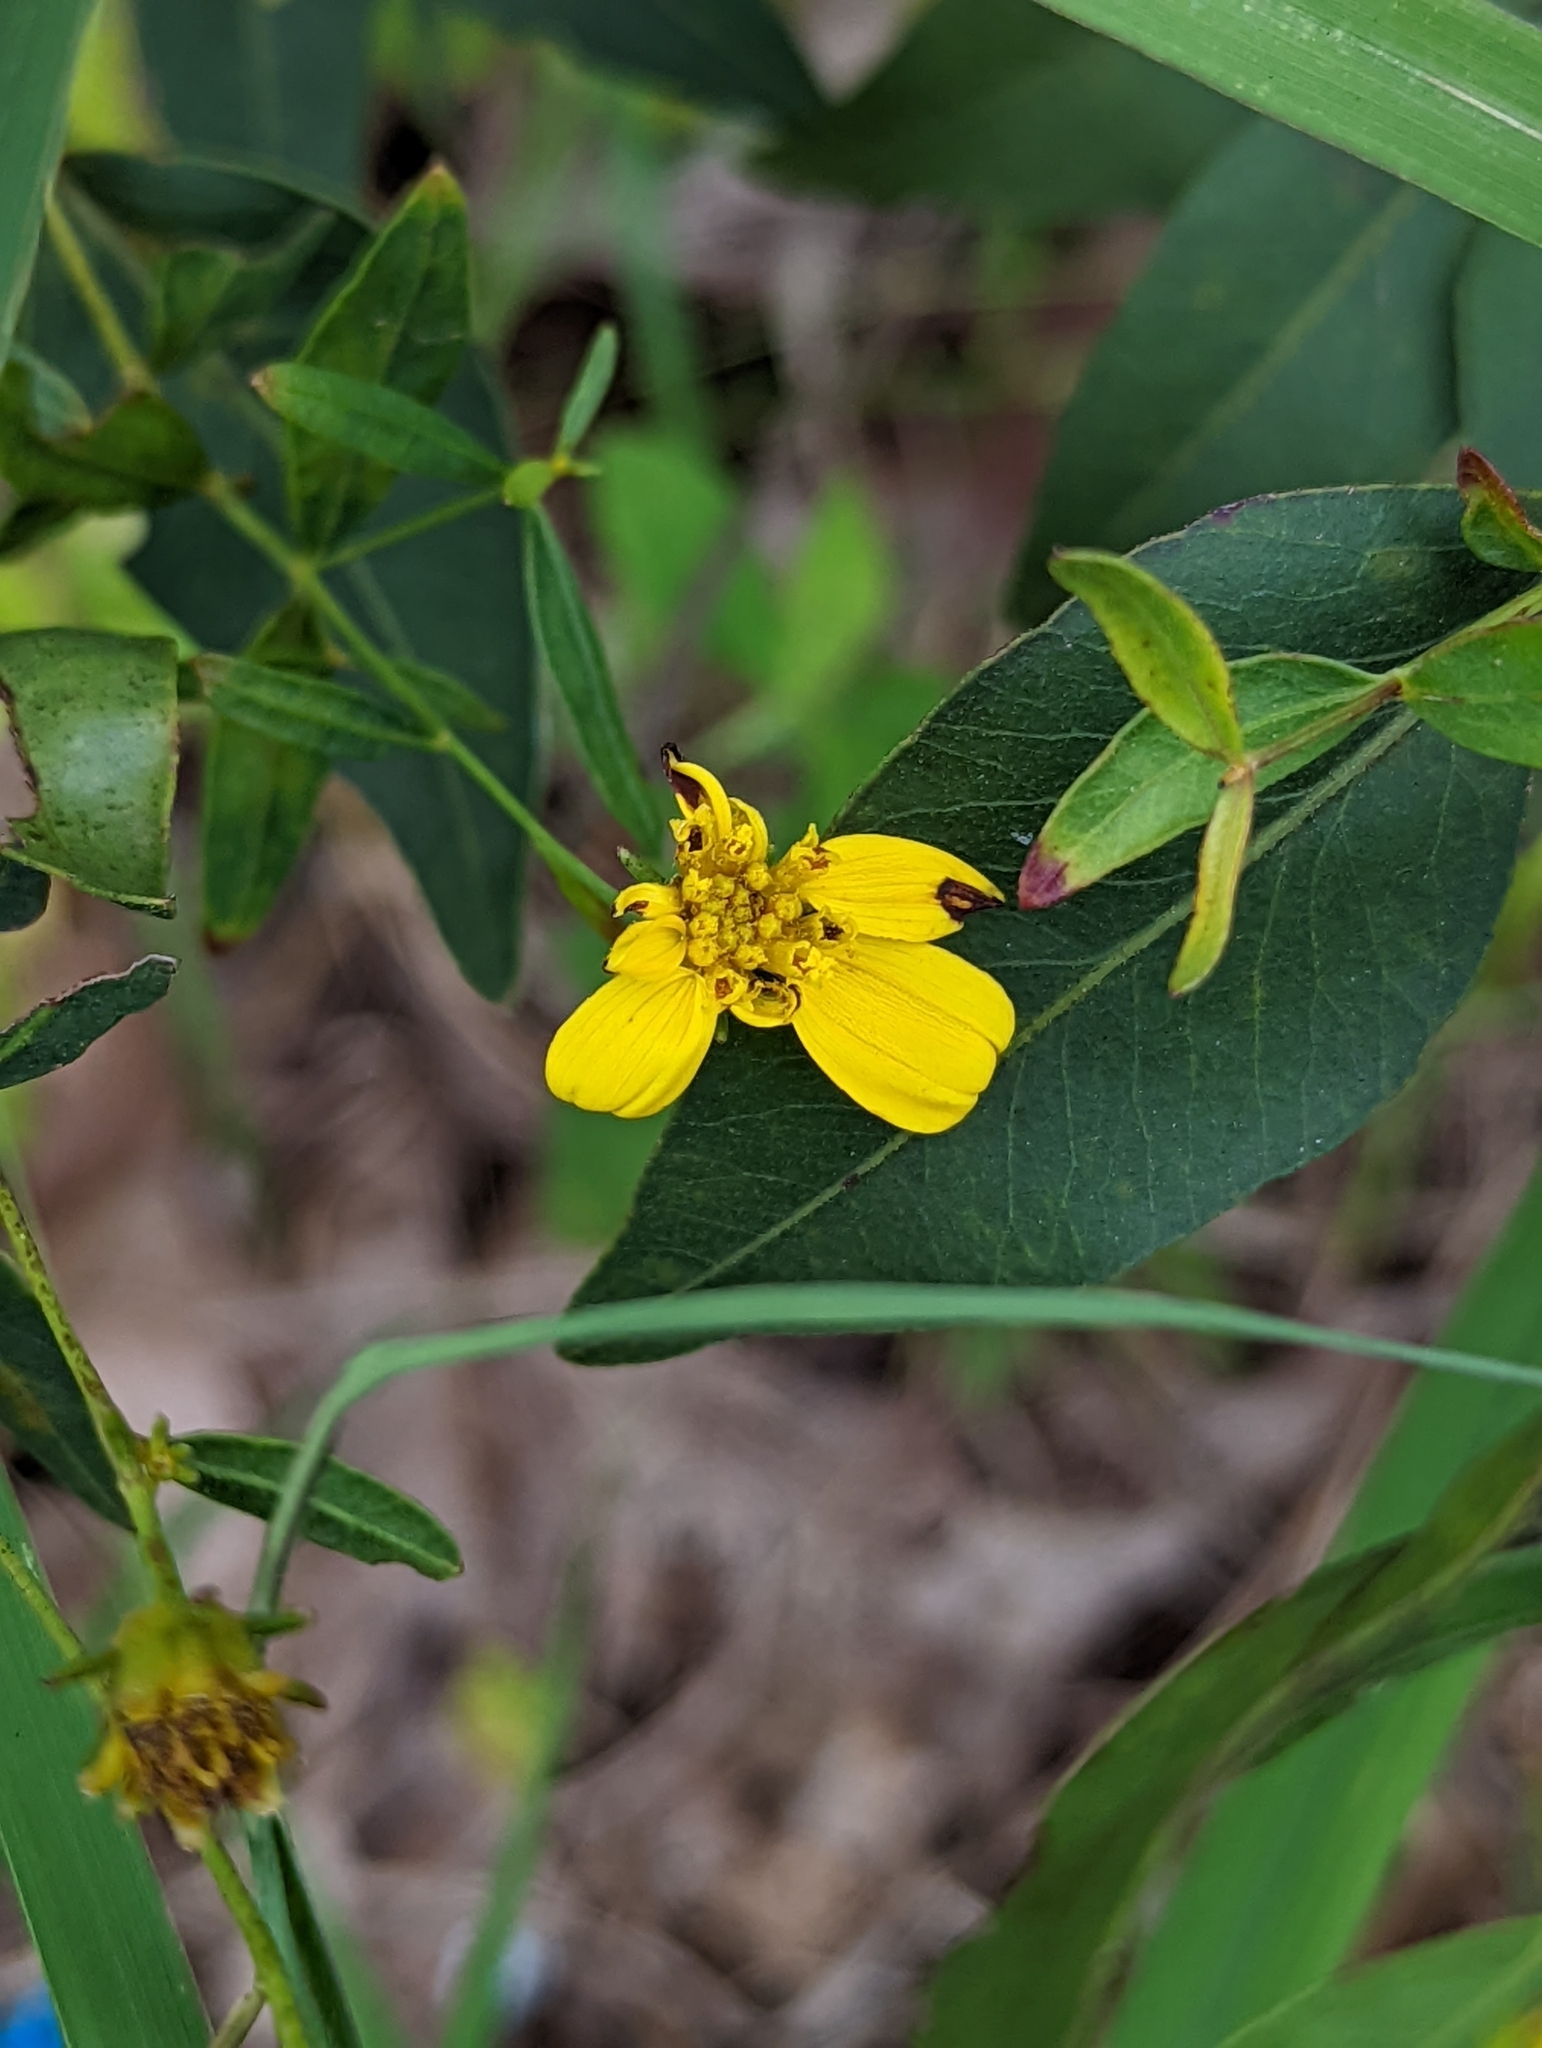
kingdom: Plantae
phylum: Tracheophyta
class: Magnoliopsida
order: Asterales
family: Asteraceae
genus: Coreopsis
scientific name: Coreopsis major
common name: Forest tickseed
